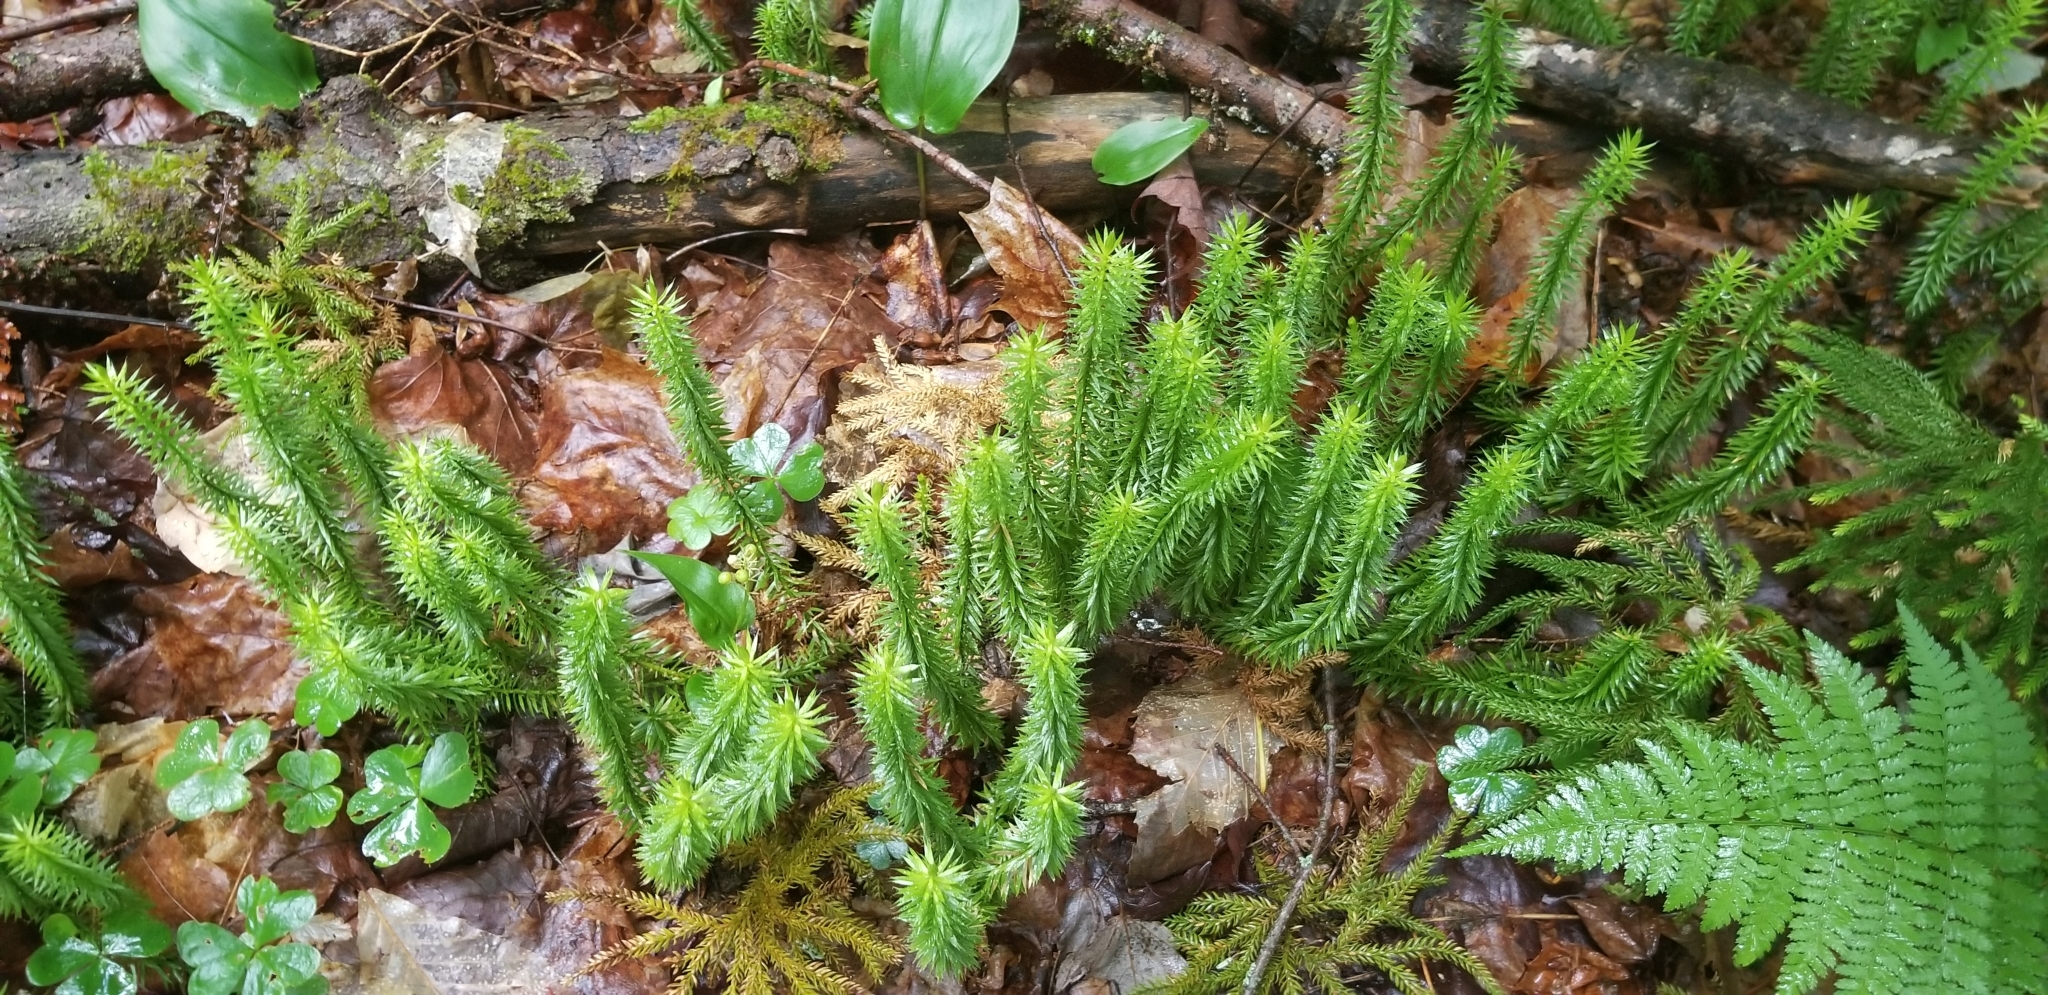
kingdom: Plantae
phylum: Tracheophyta
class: Lycopodiopsida
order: Lycopodiales
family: Lycopodiaceae
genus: Huperzia
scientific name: Huperzia lucidula
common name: Shining clubmoss
